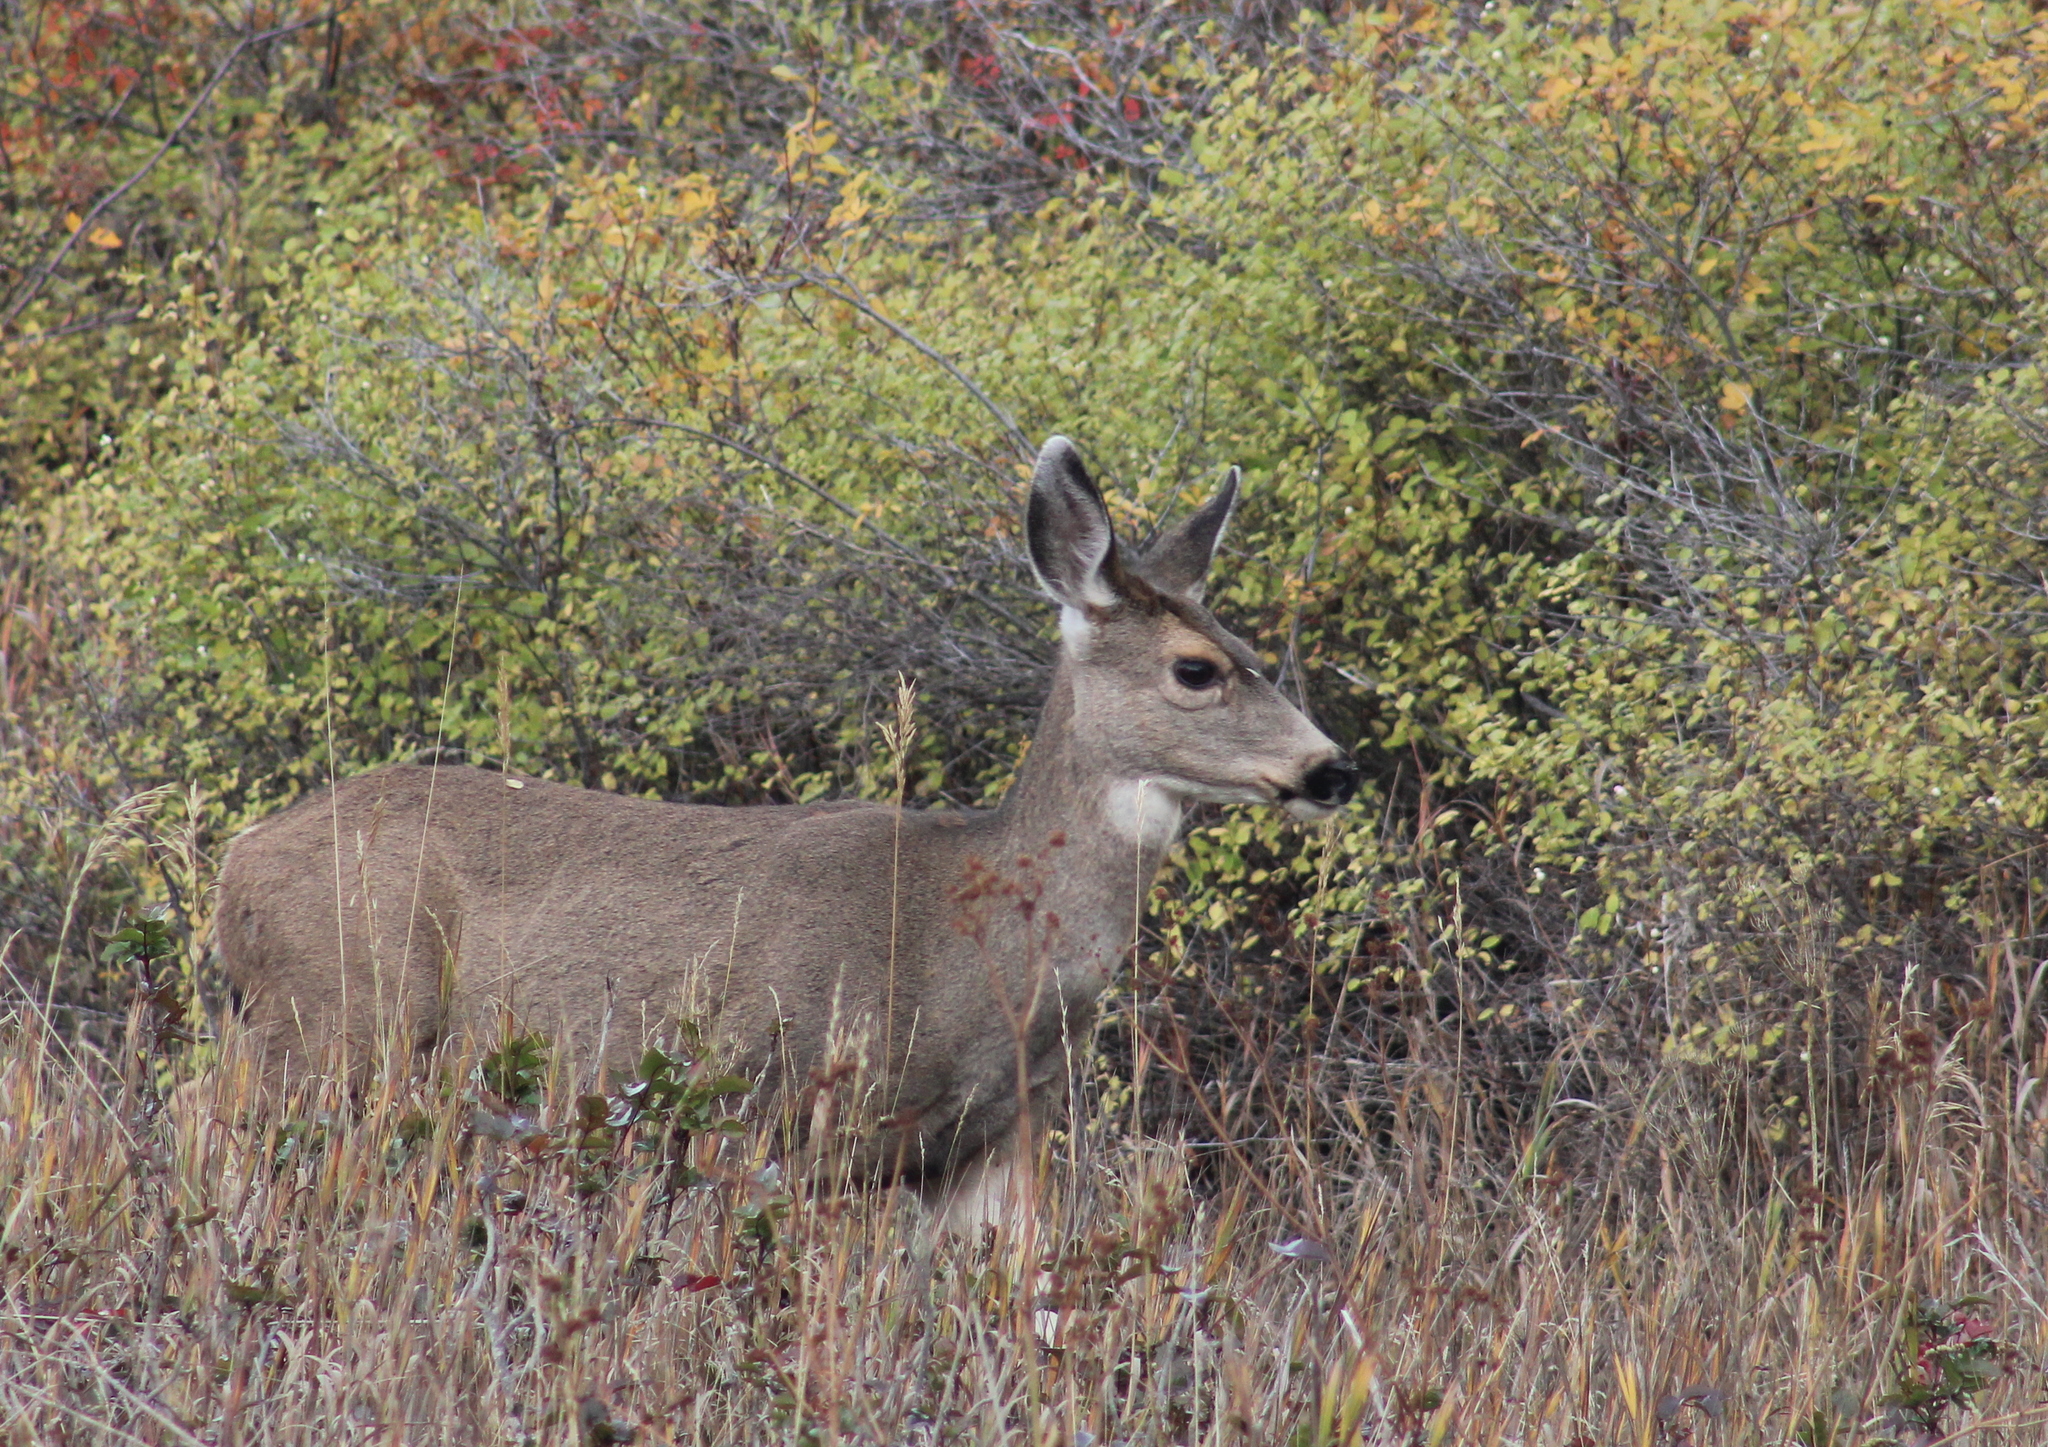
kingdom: Animalia
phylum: Chordata
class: Mammalia
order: Artiodactyla
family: Cervidae
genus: Odocoileus
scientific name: Odocoileus hemionus
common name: Mule deer
